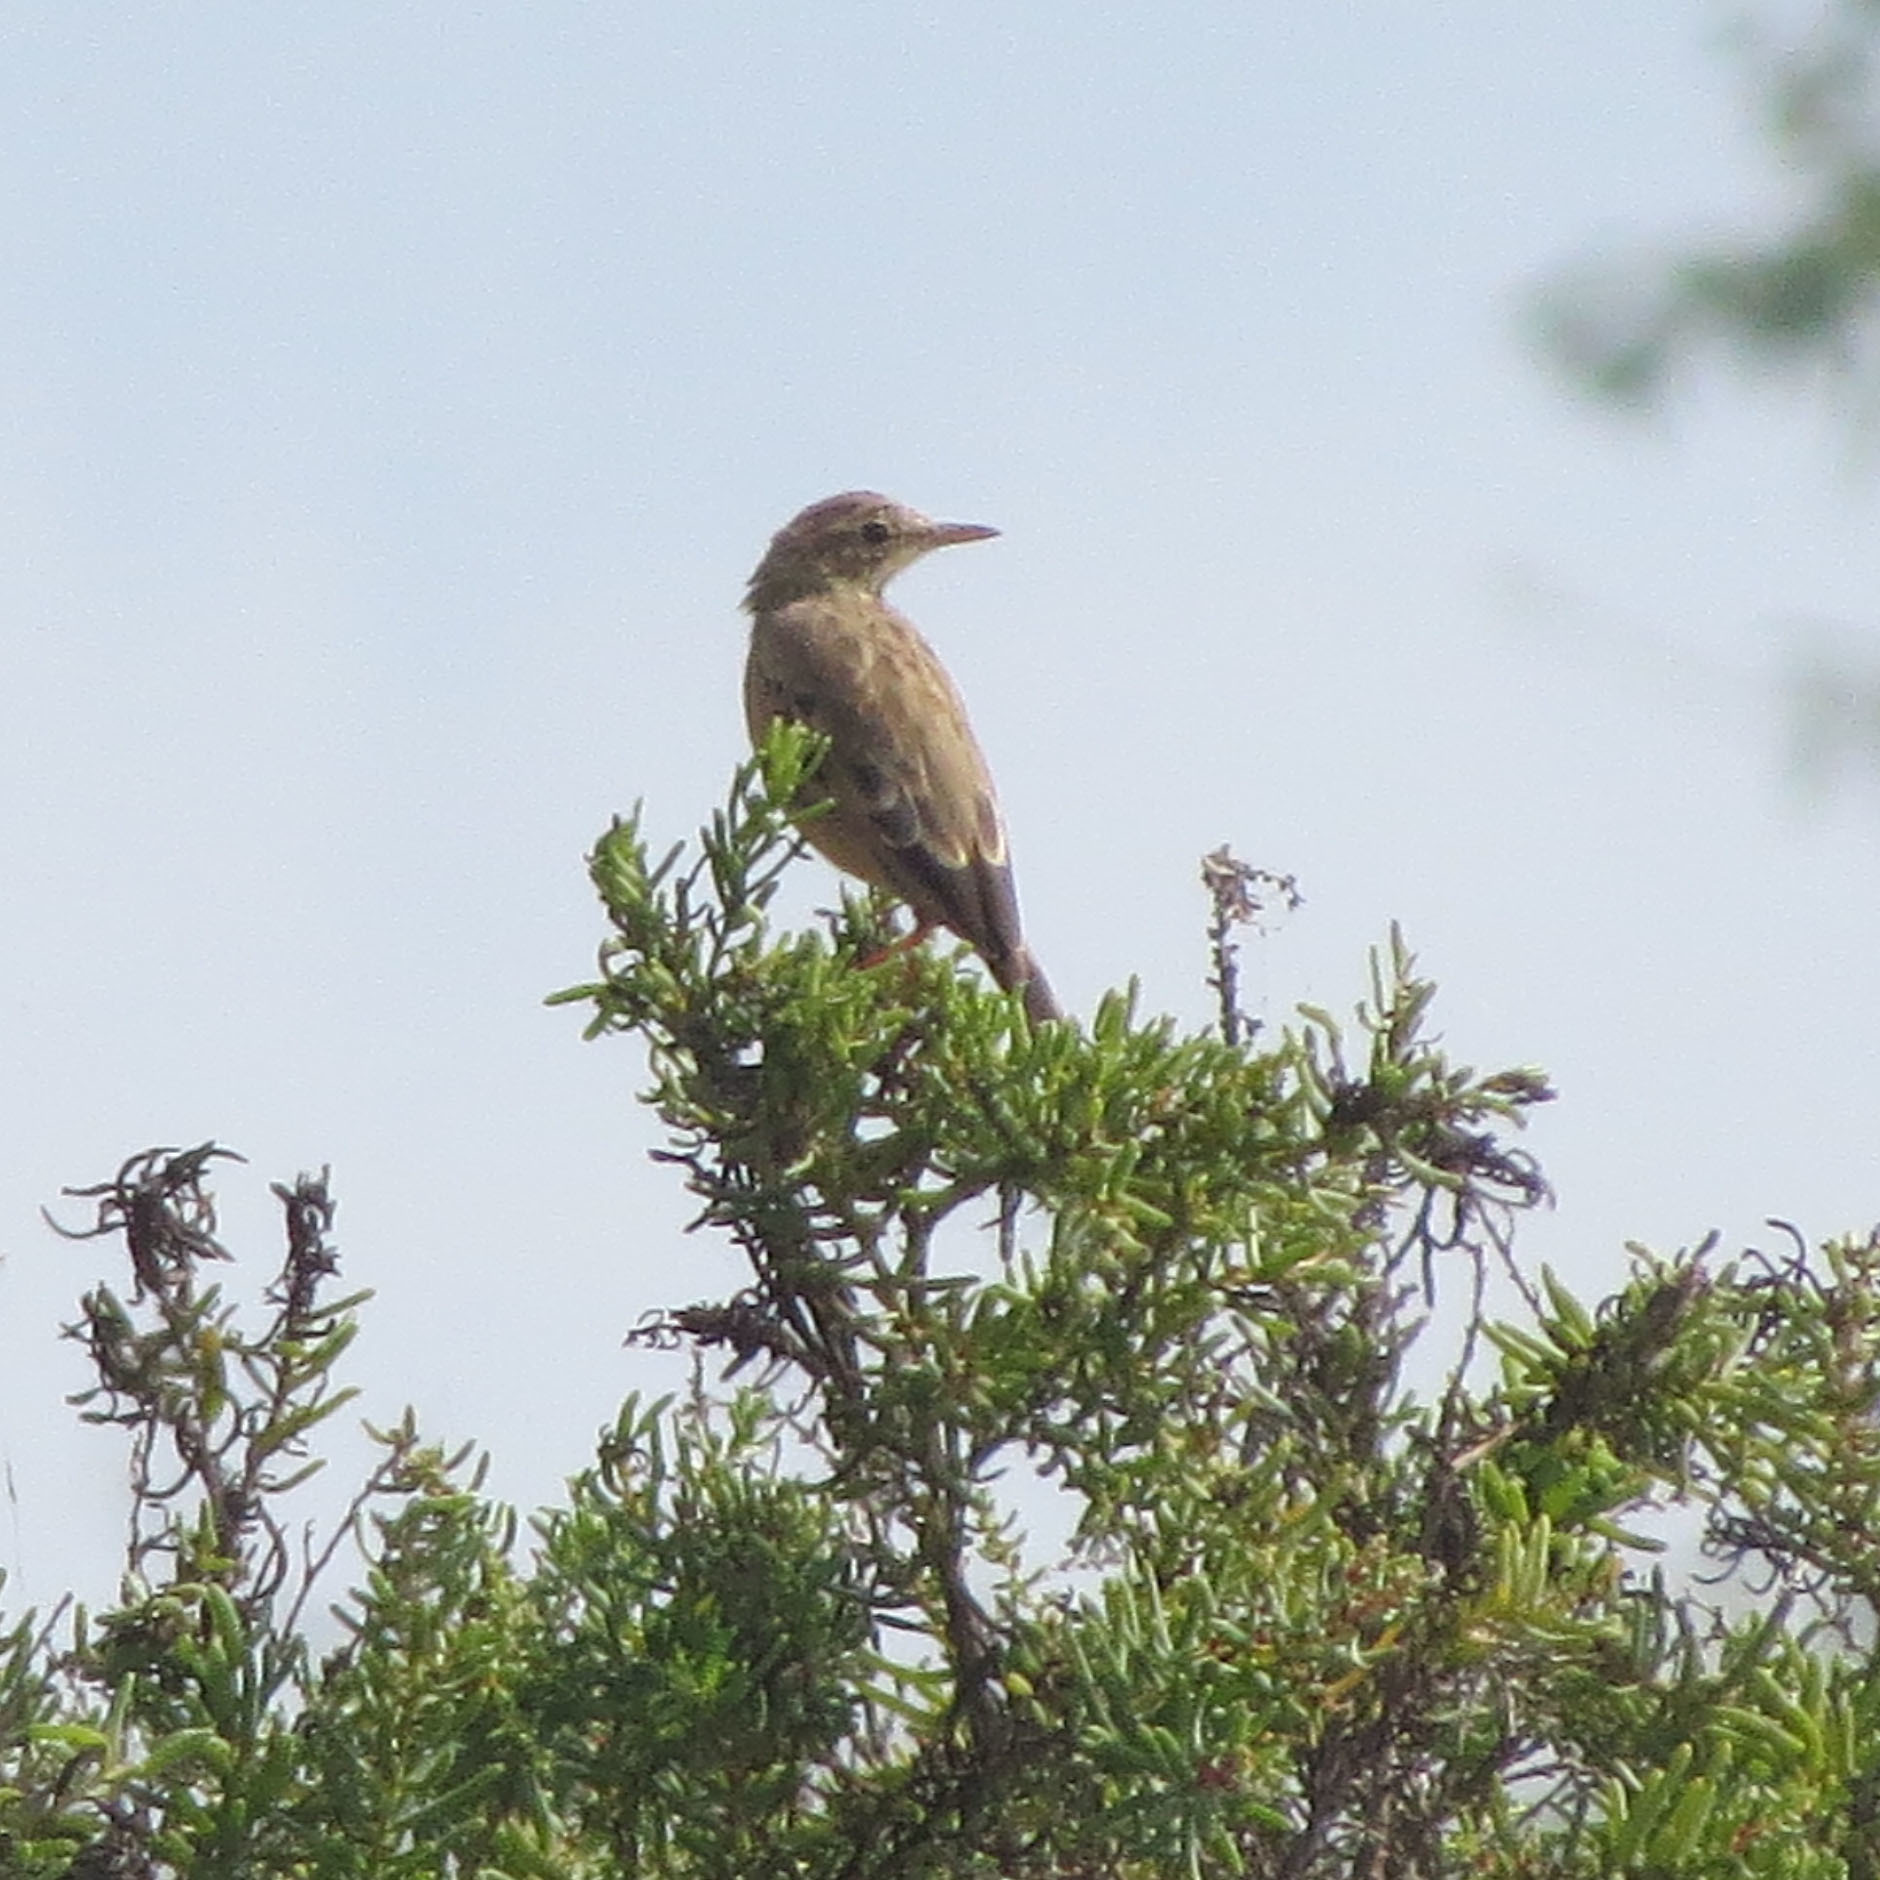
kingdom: Animalia
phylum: Chordata
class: Aves
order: Passeriformes
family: Motacillidae
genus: Anthus
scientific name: Anthus campestris
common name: Tawny pipit
